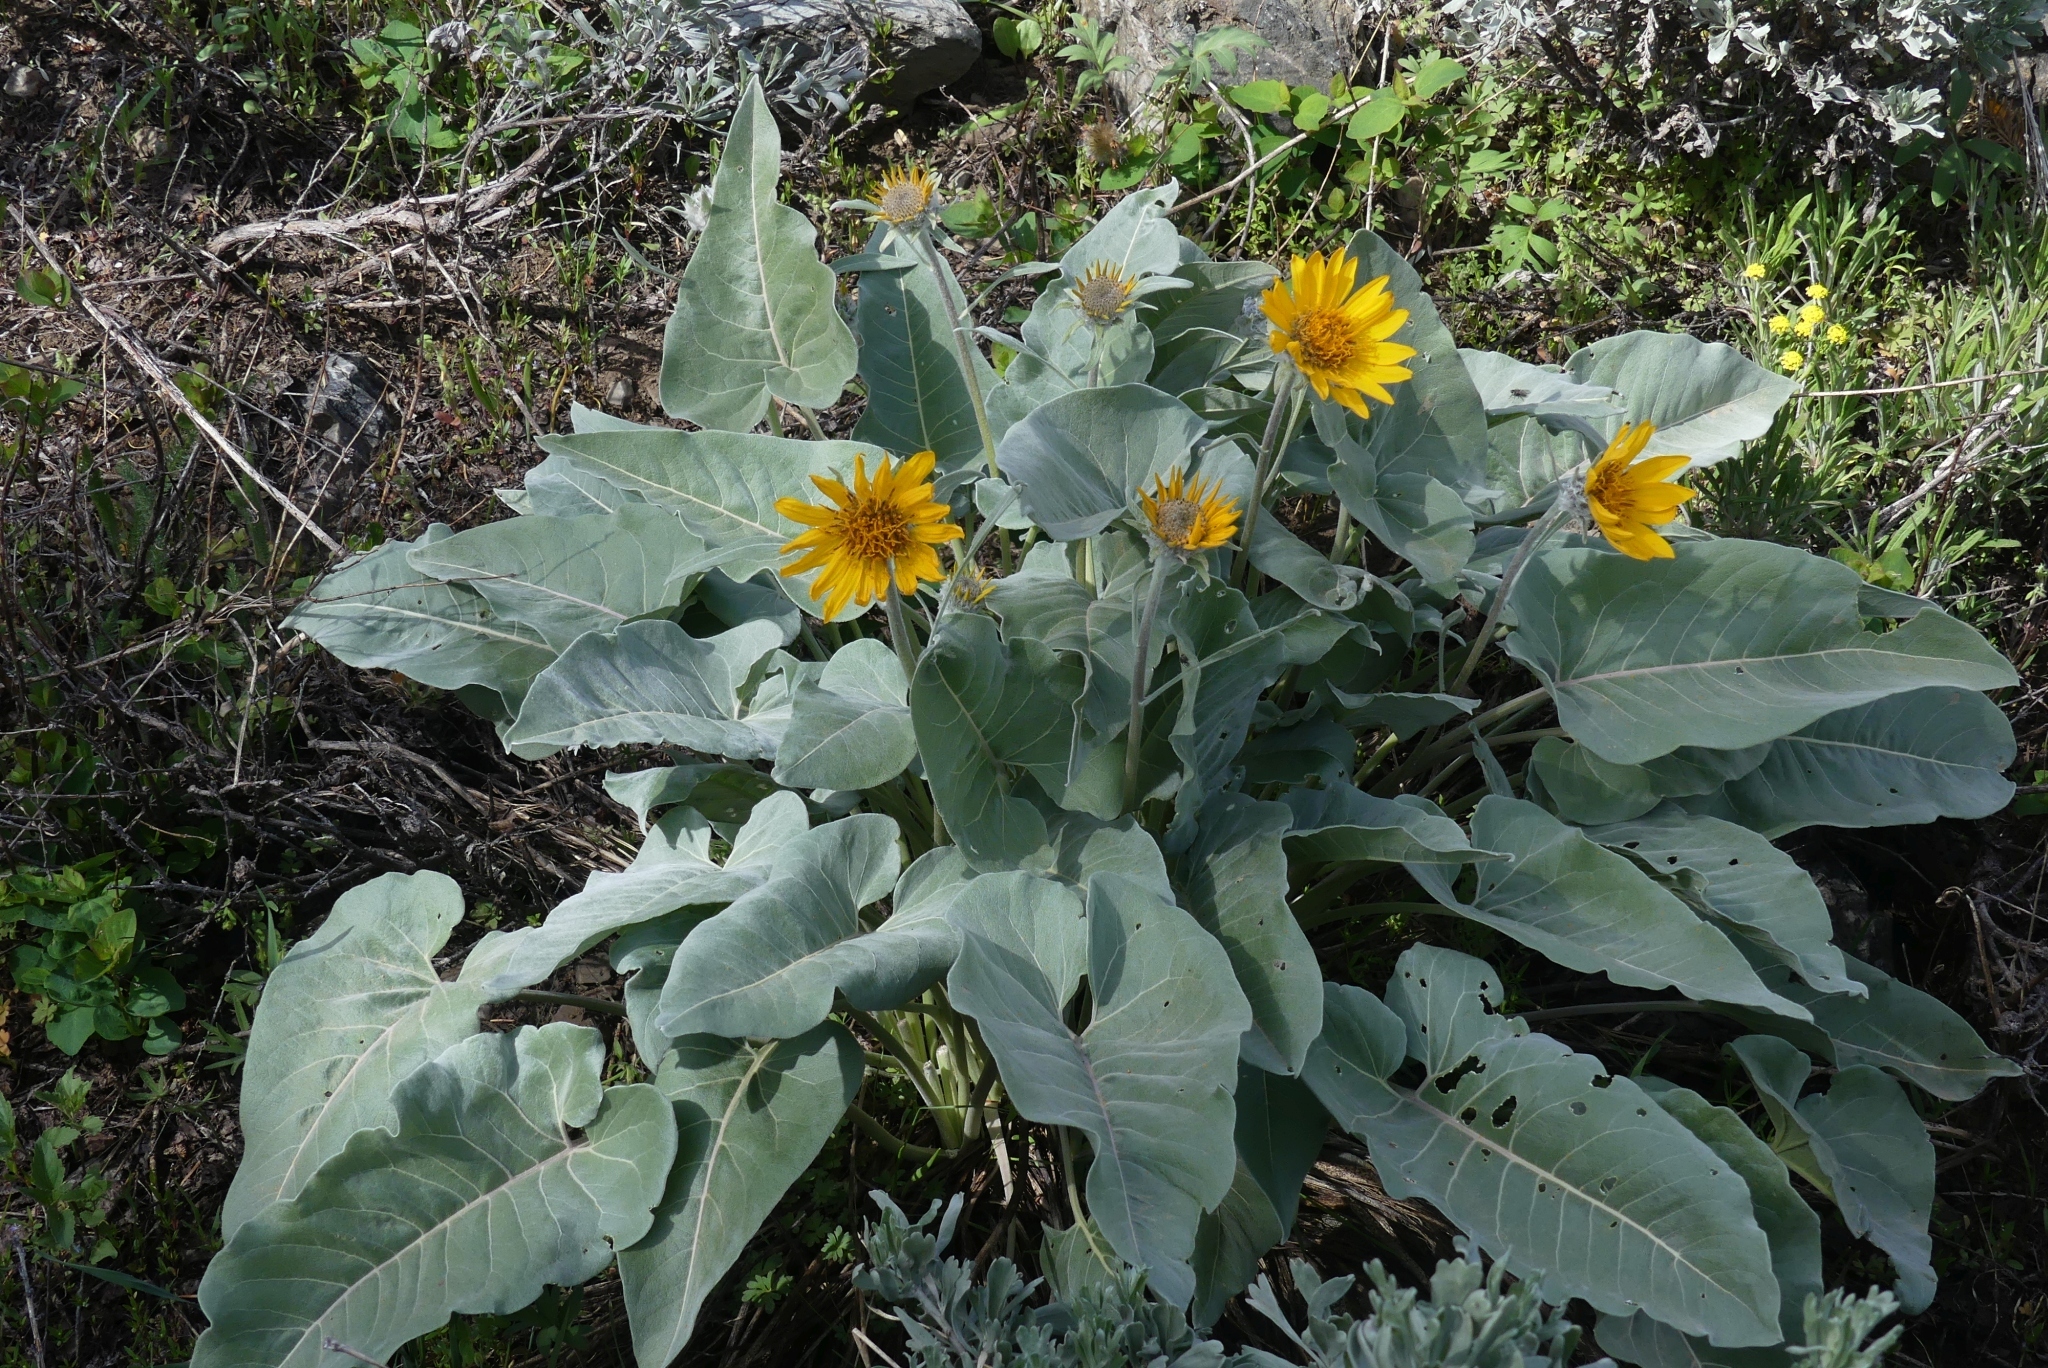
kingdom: Plantae
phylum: Tracheophyta
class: Magnoliopsida
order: Asterales
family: Asteraceae
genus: Wyethia
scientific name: Wyethia sagittata
